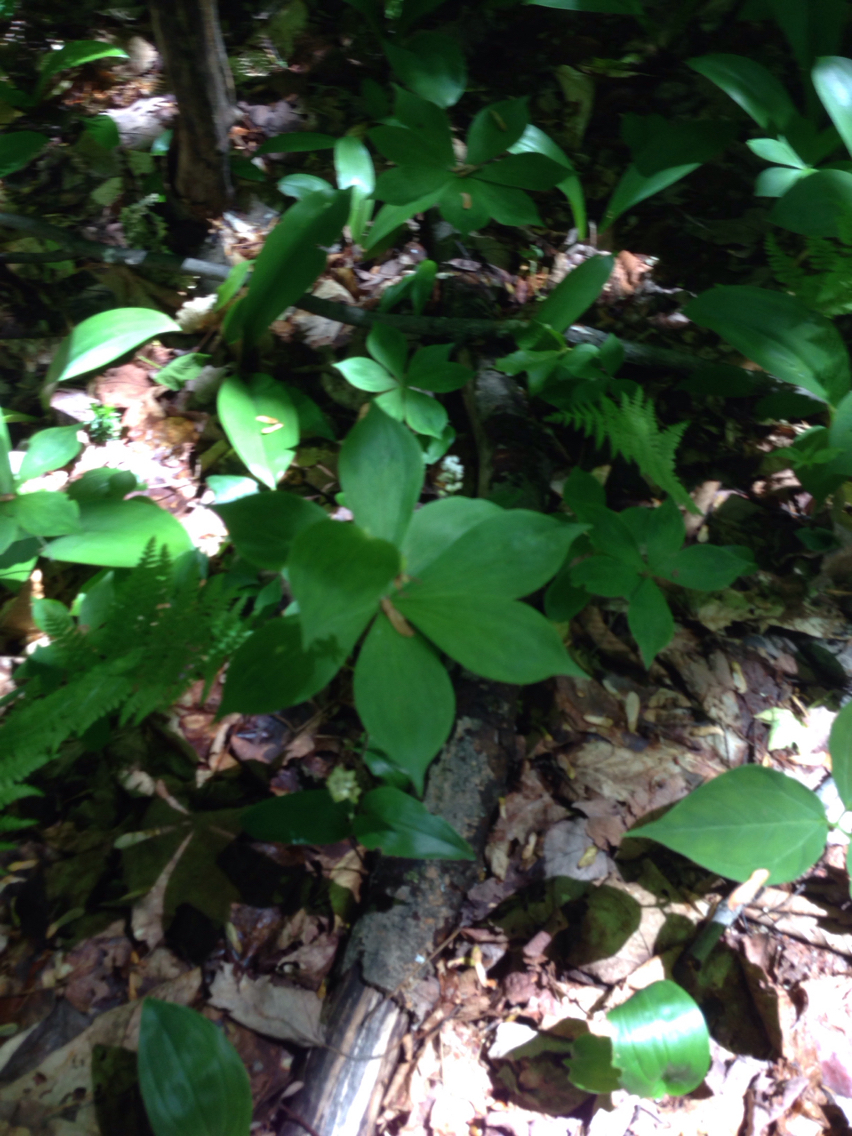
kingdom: Plantae
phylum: Tracheophyta
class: Liliopsida
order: Liliales
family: Liliaceae
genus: Medeola
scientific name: Medeola virginiana
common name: Indian cucumber-root
